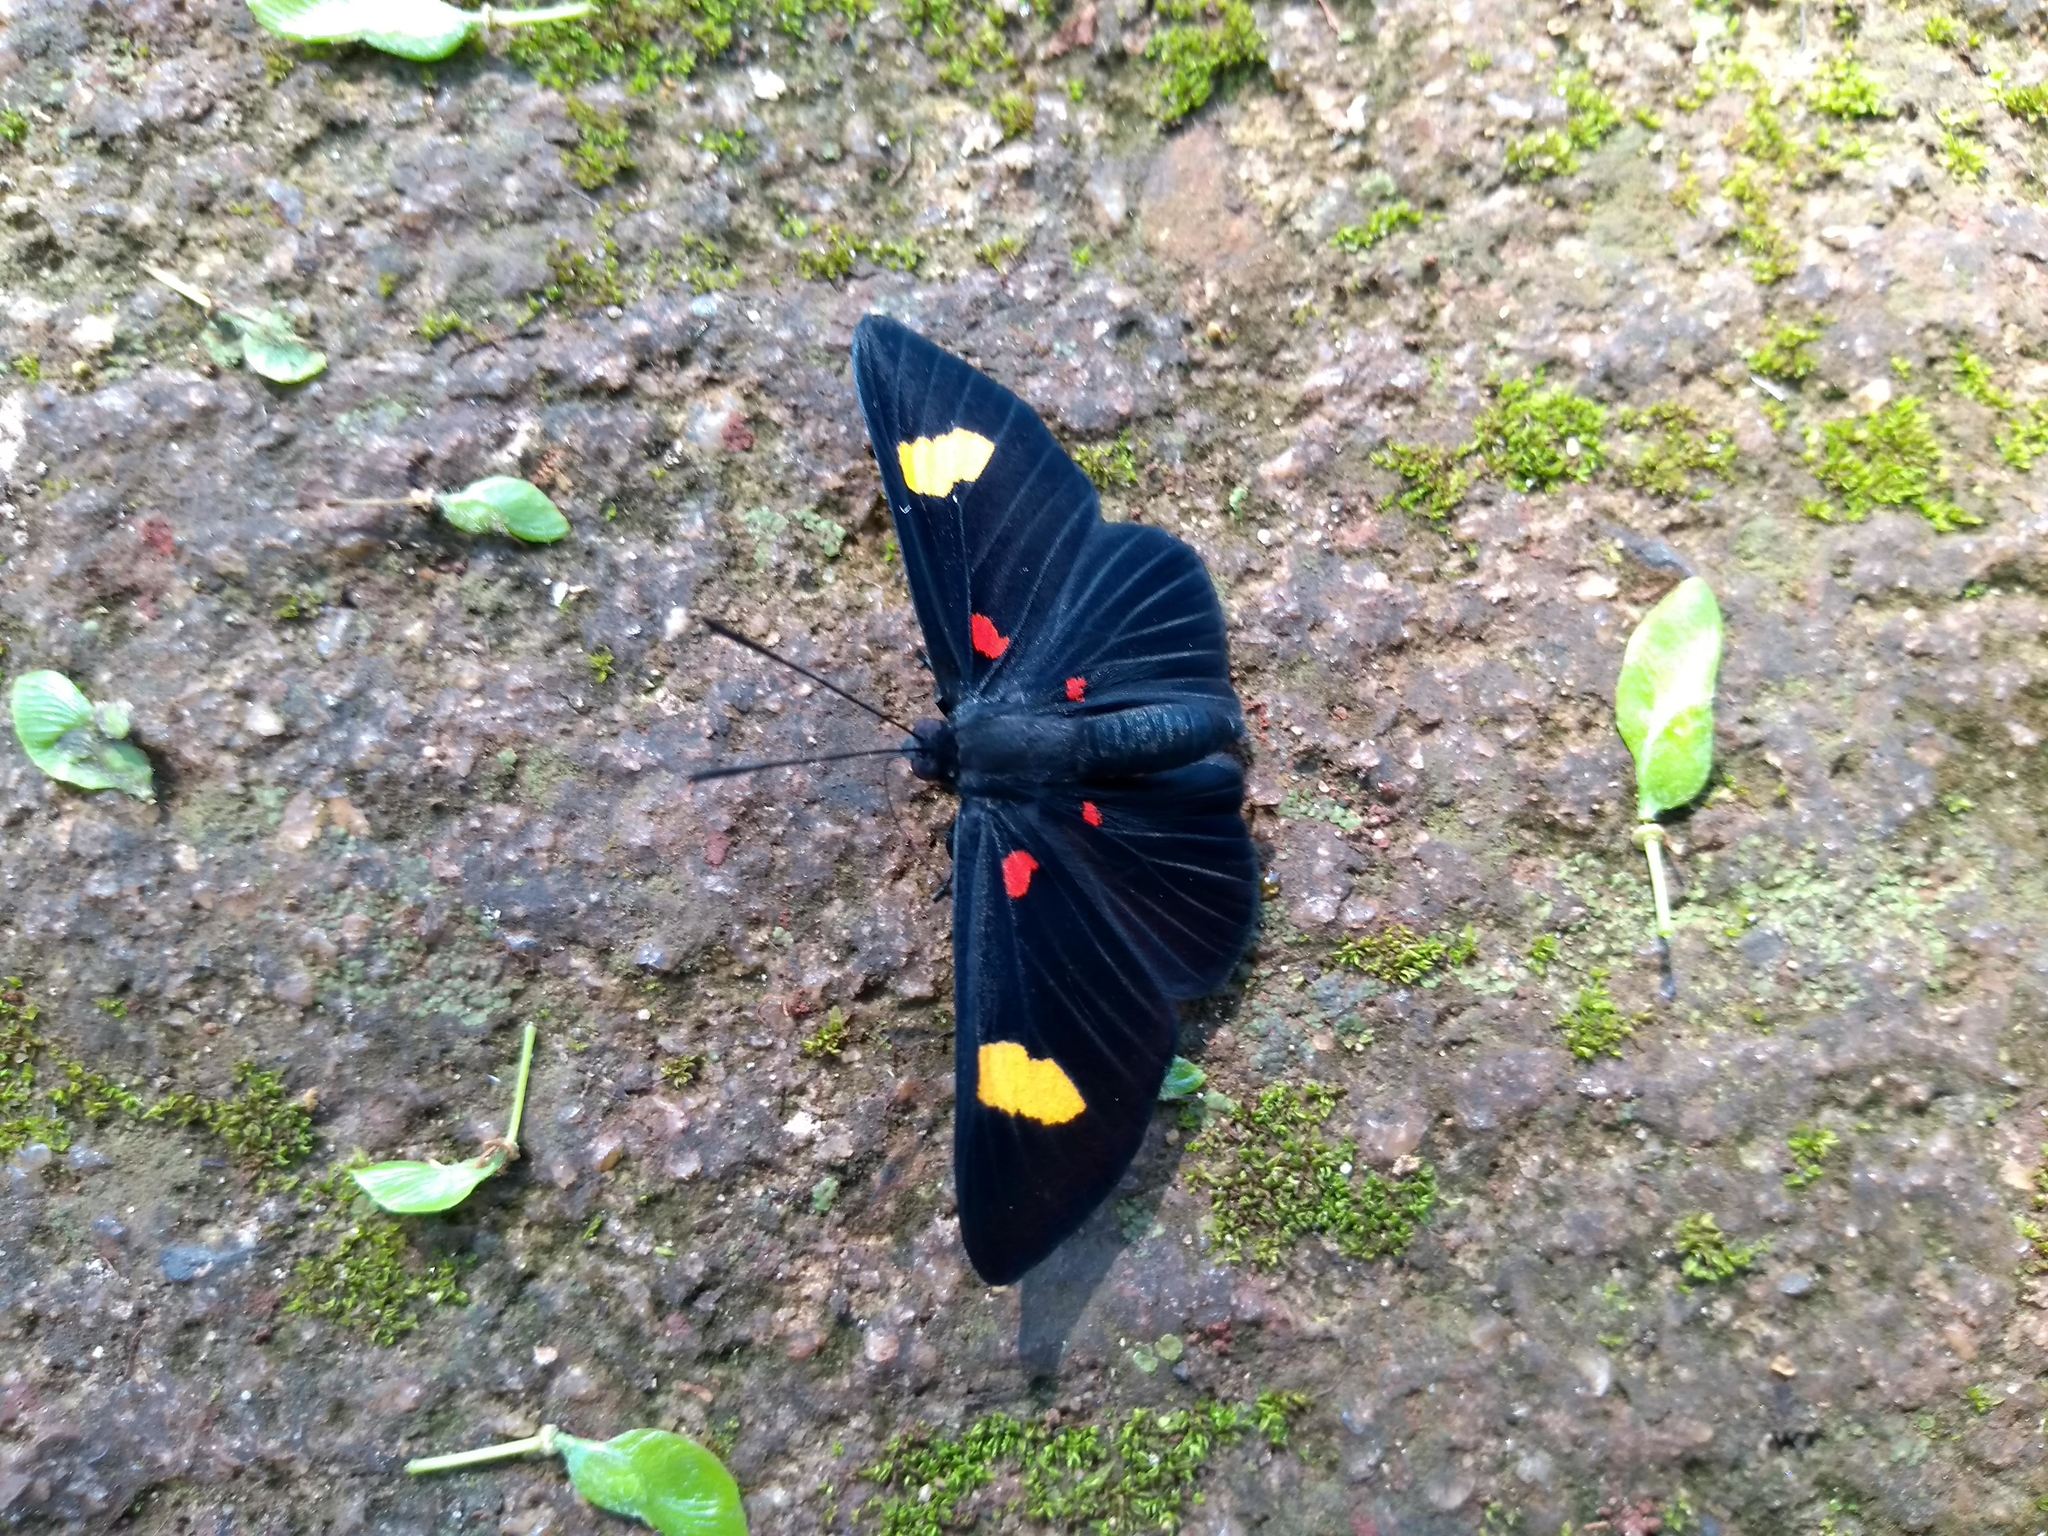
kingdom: Animalia
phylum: Arthropoda
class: Insecta
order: Lepidoptera
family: Lycaenidae
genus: Melanis
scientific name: Melanis aegates
